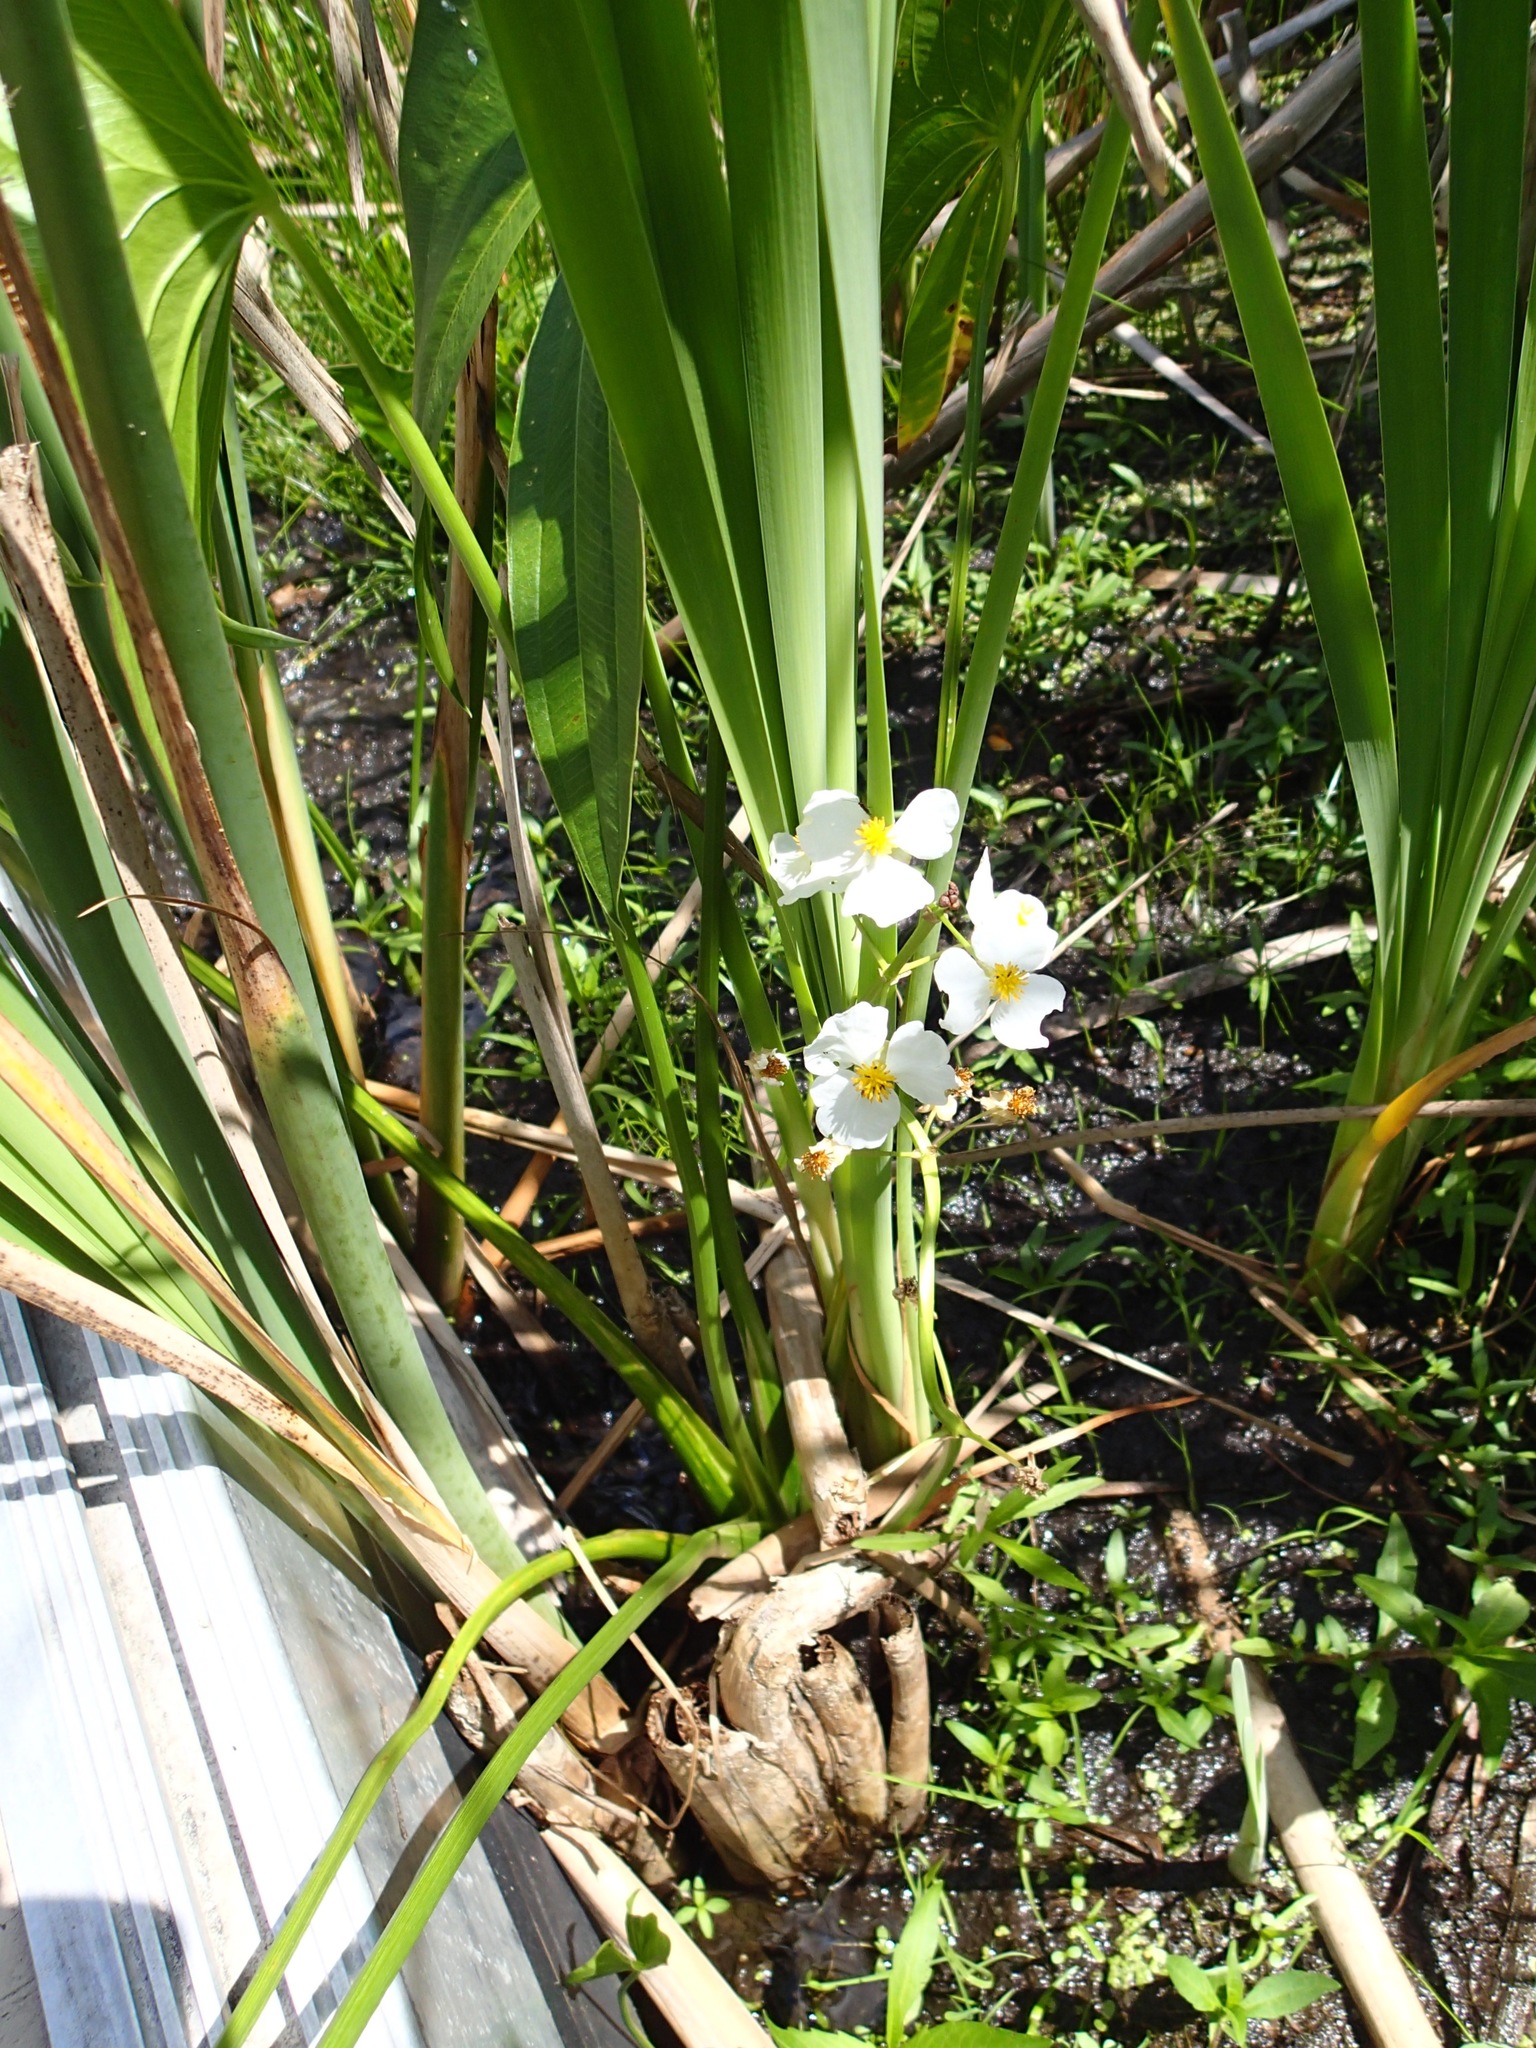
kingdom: Plantae
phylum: Tracheophyta
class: Liliopsida
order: Alismatales
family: Alismataceae
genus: Sagittaria
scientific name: Sagittaria latifolia
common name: Duck-potato
